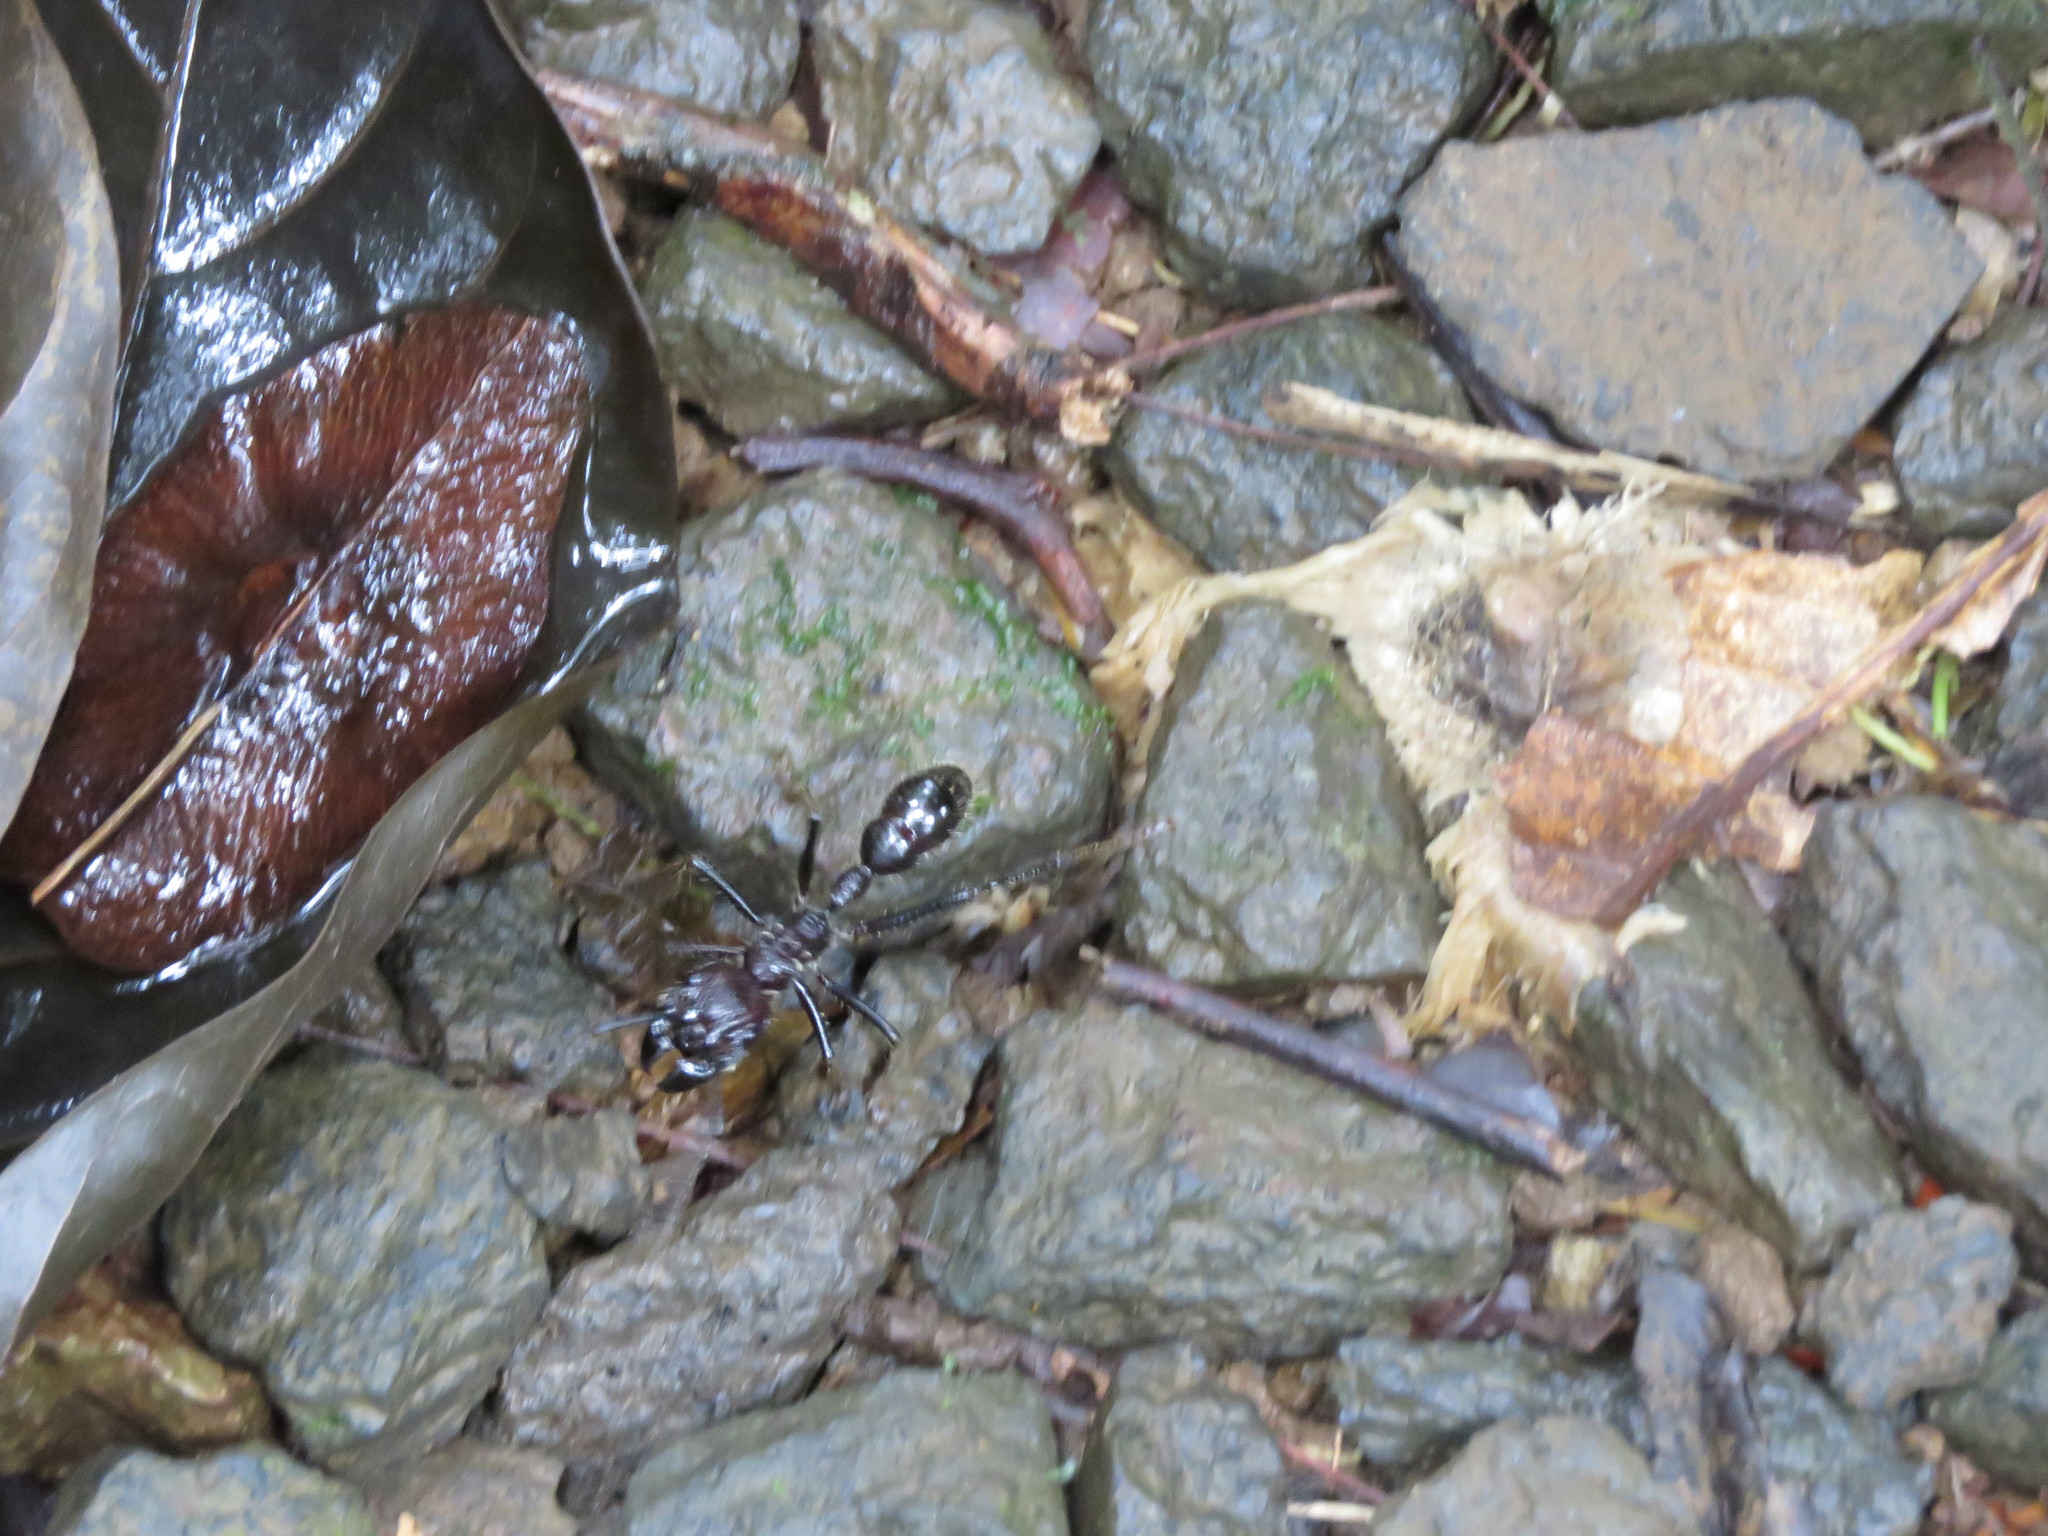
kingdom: Animalia
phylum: Arthropoda
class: Insecta
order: Hymenoptera
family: Formicidae
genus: Paraponera
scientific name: Paraponera clavata
